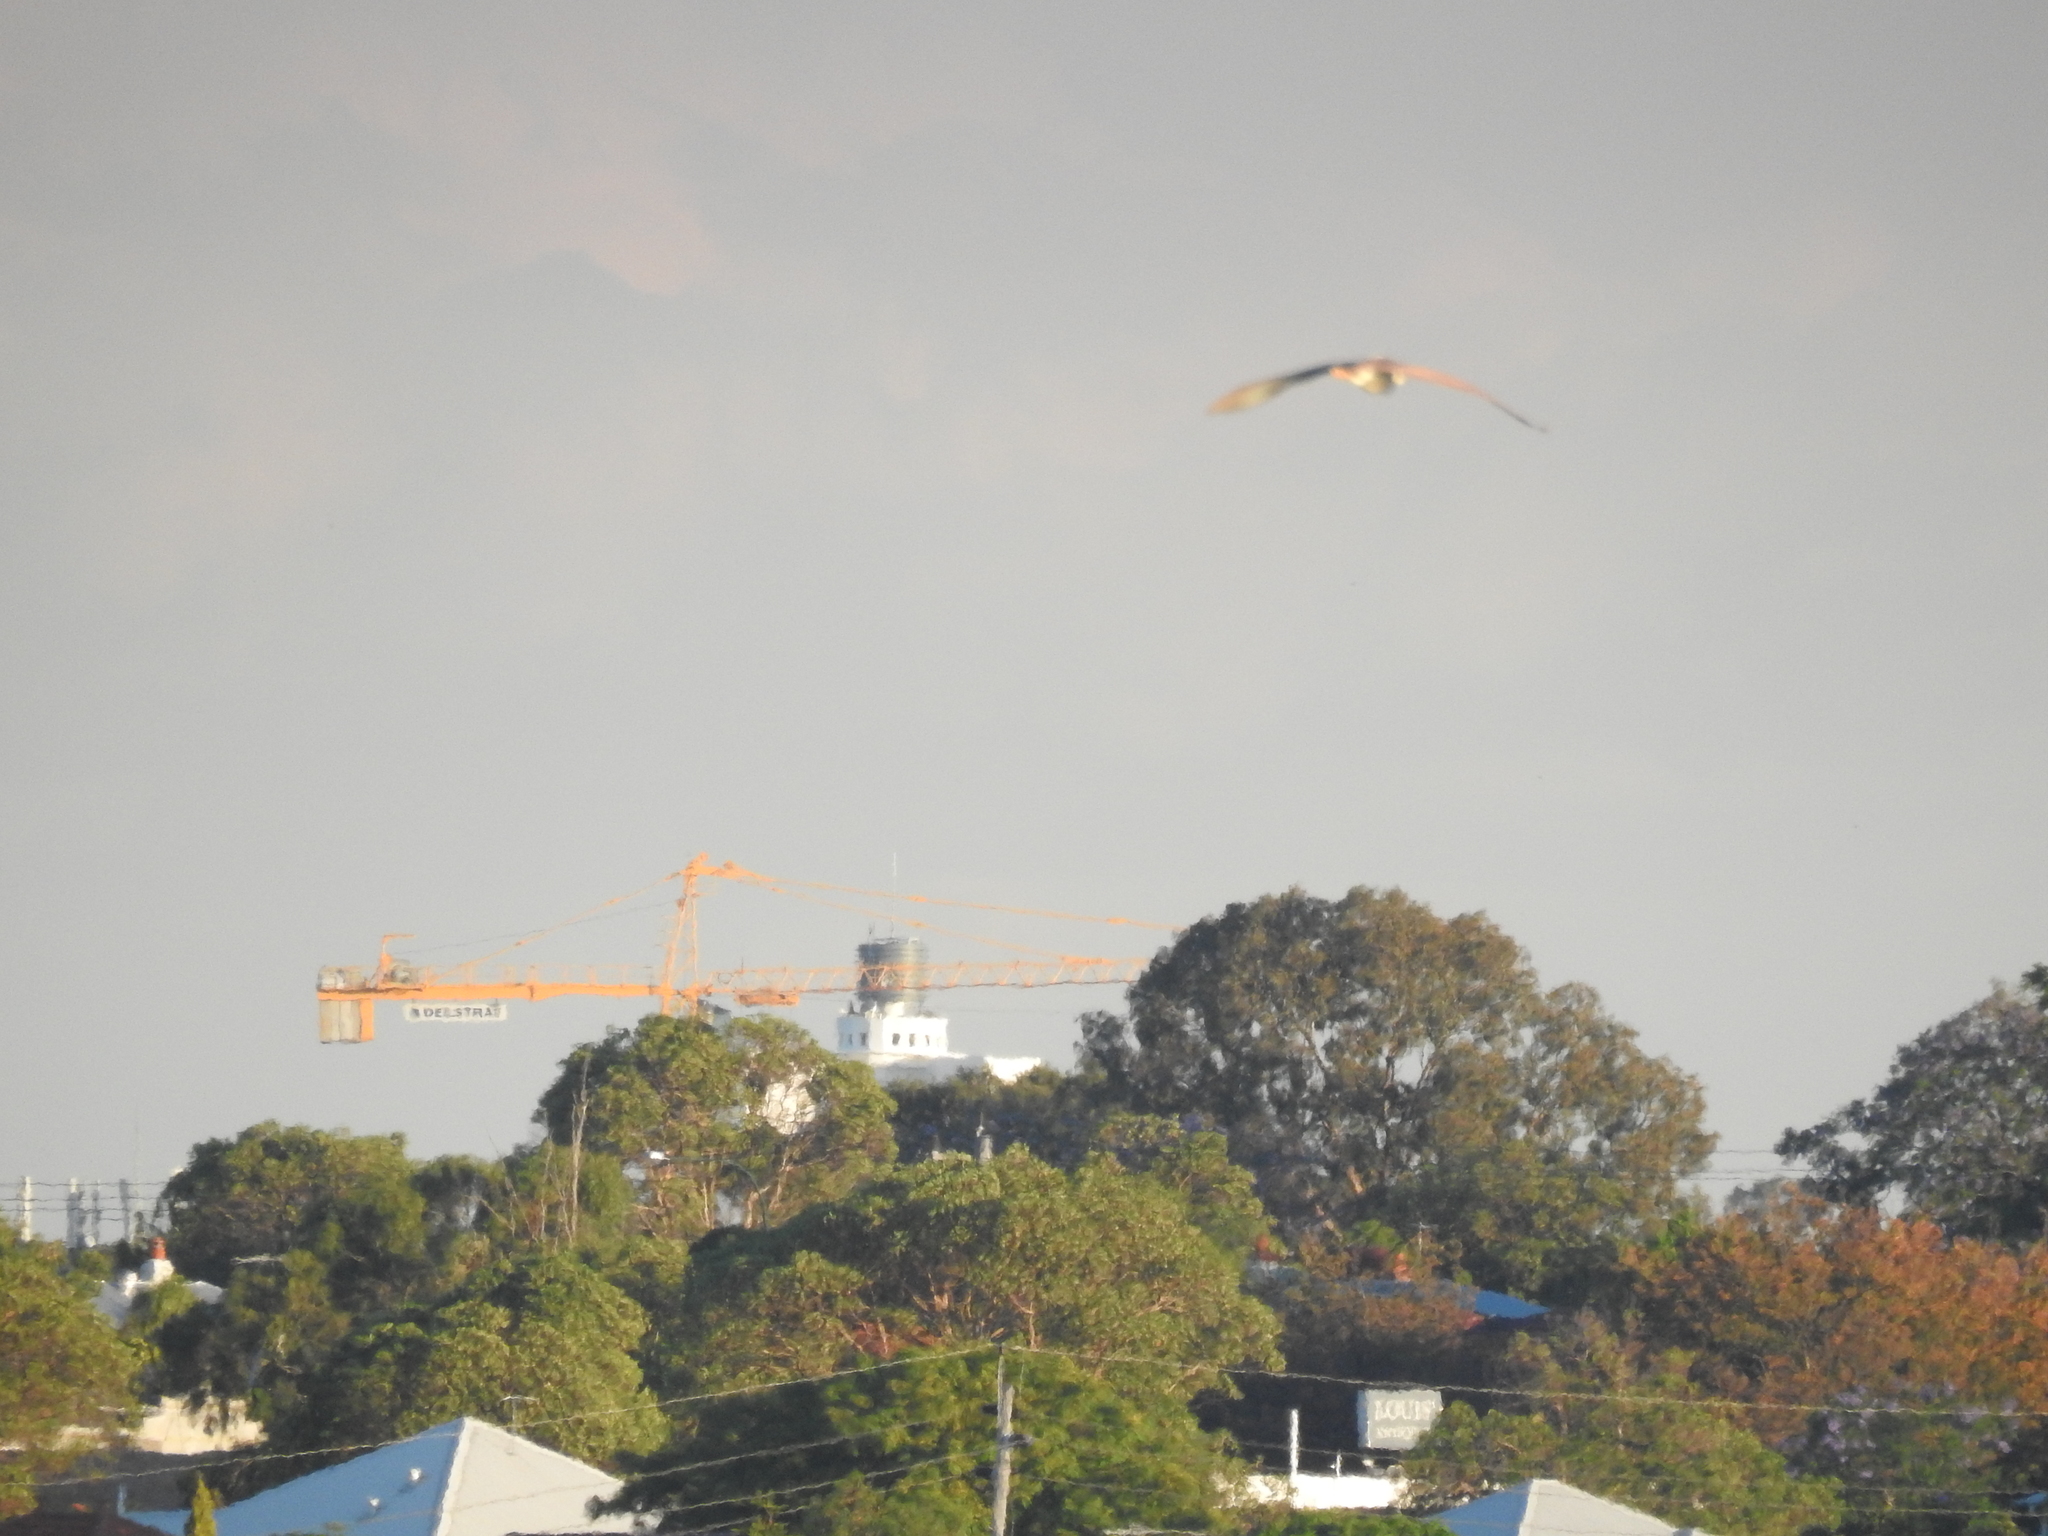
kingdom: Animalia
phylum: Chordata
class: Aves
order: Pelecaniformes
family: Ardeidae
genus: Nycticorax
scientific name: Nycticorax caledonicus
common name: Rufous night-heron
